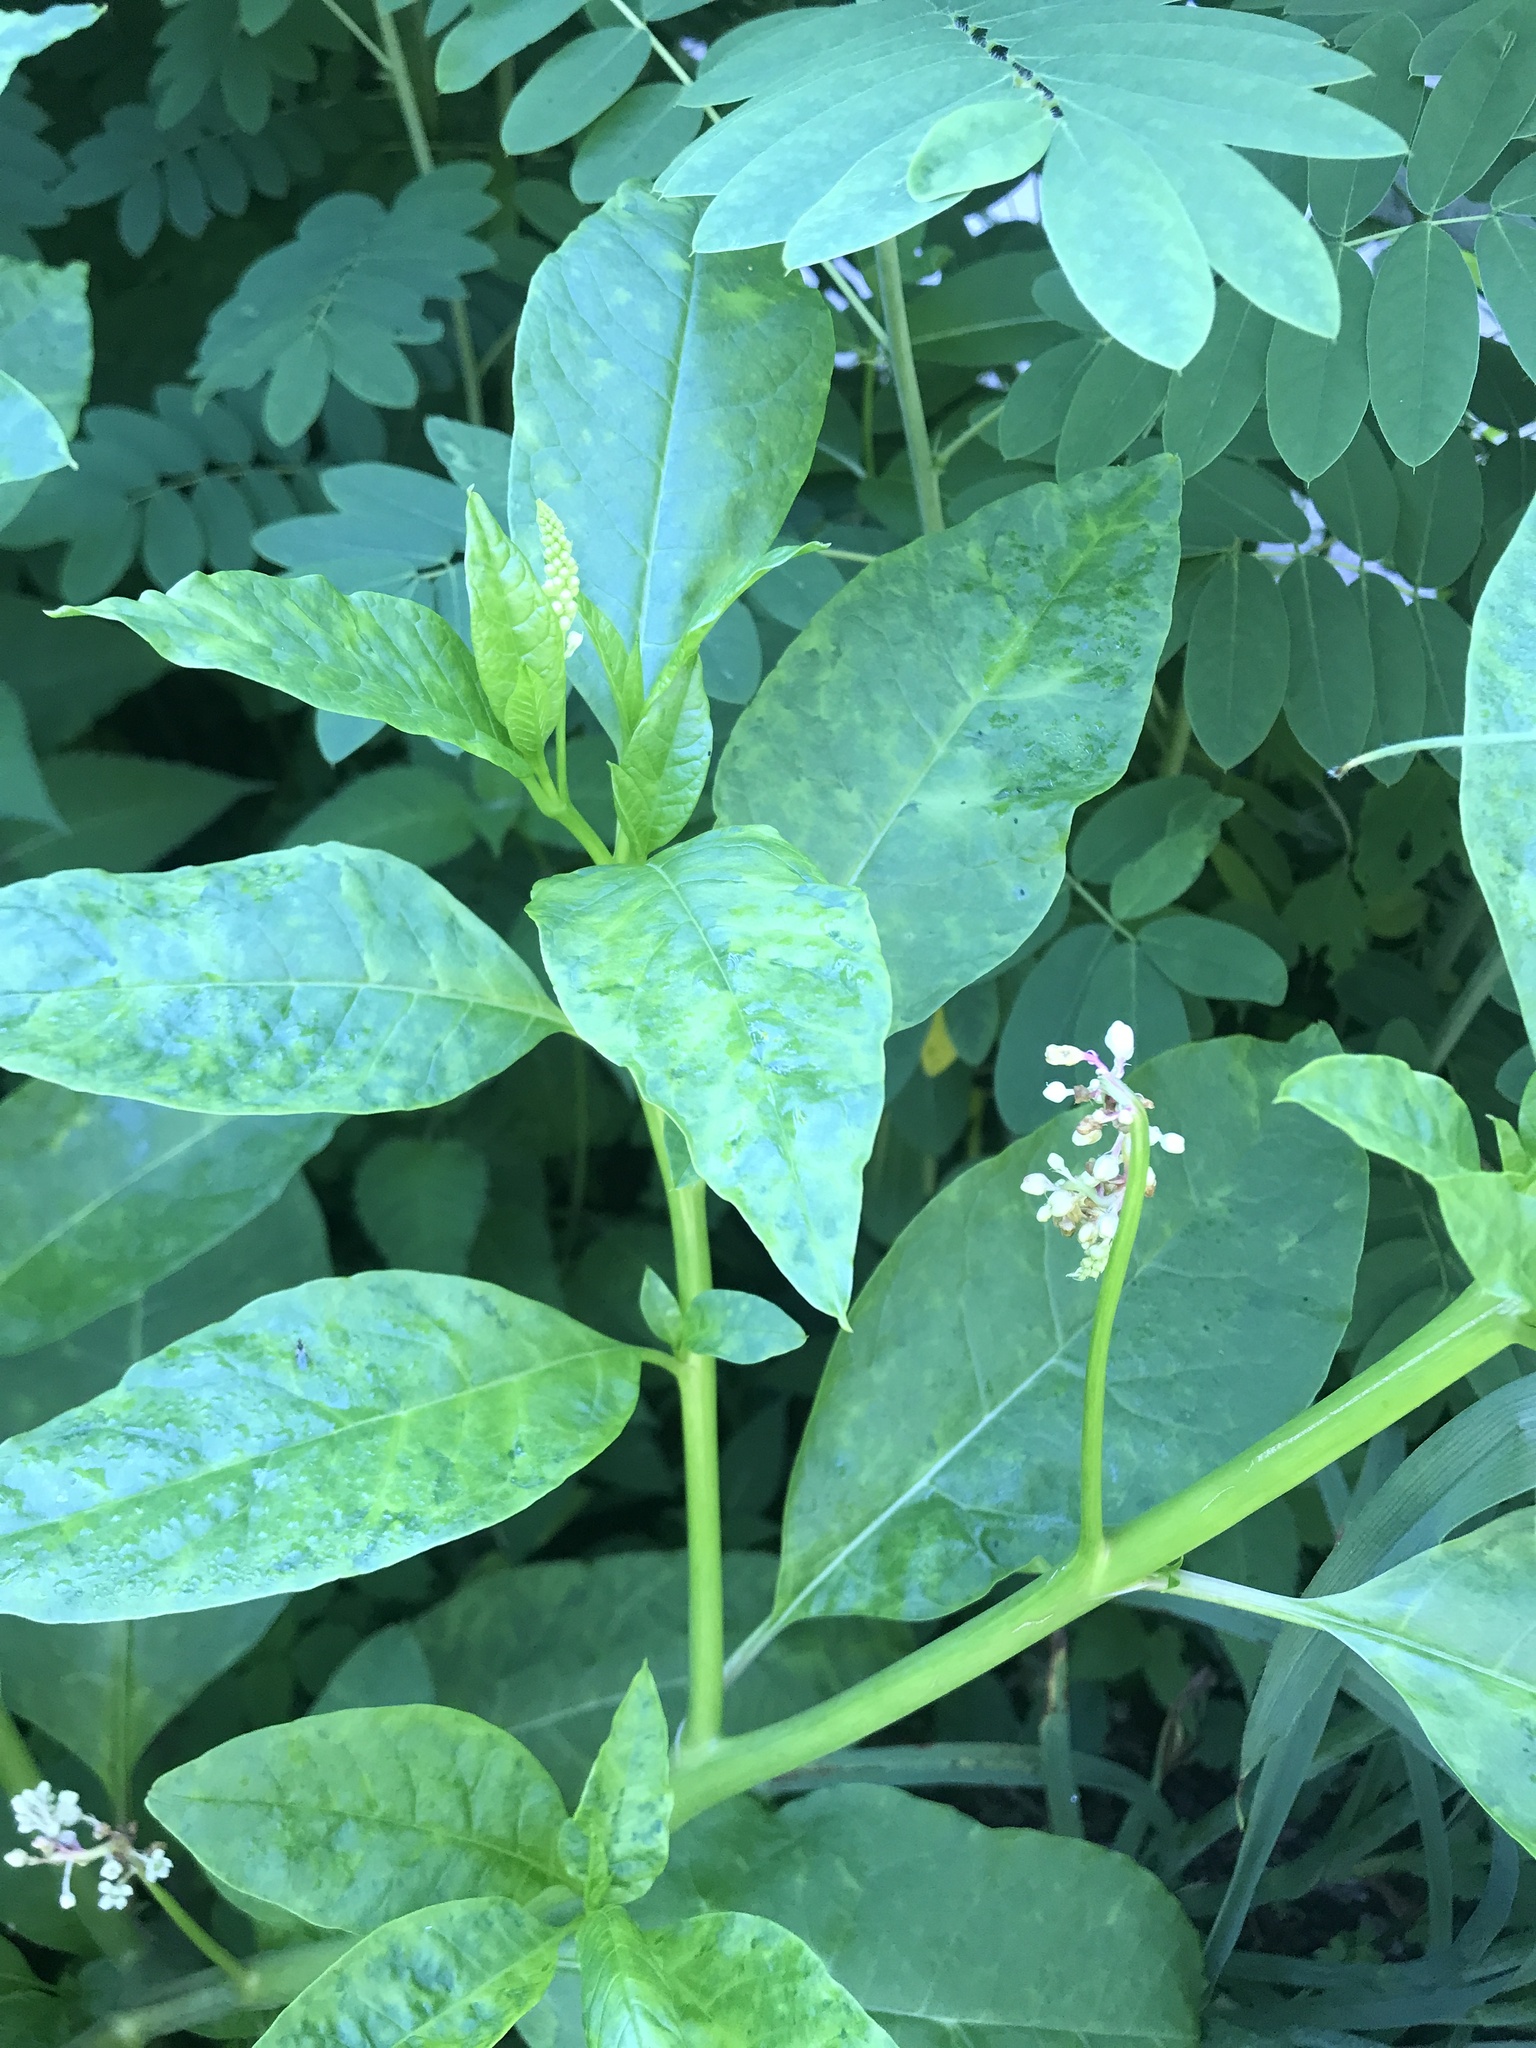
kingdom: Plantae
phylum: Tracheophyta
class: Magnoliopsida
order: Caryophyllales
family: Phytolaccaceae
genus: Phytolacca
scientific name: Phytolacca americana
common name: American pokeweed
